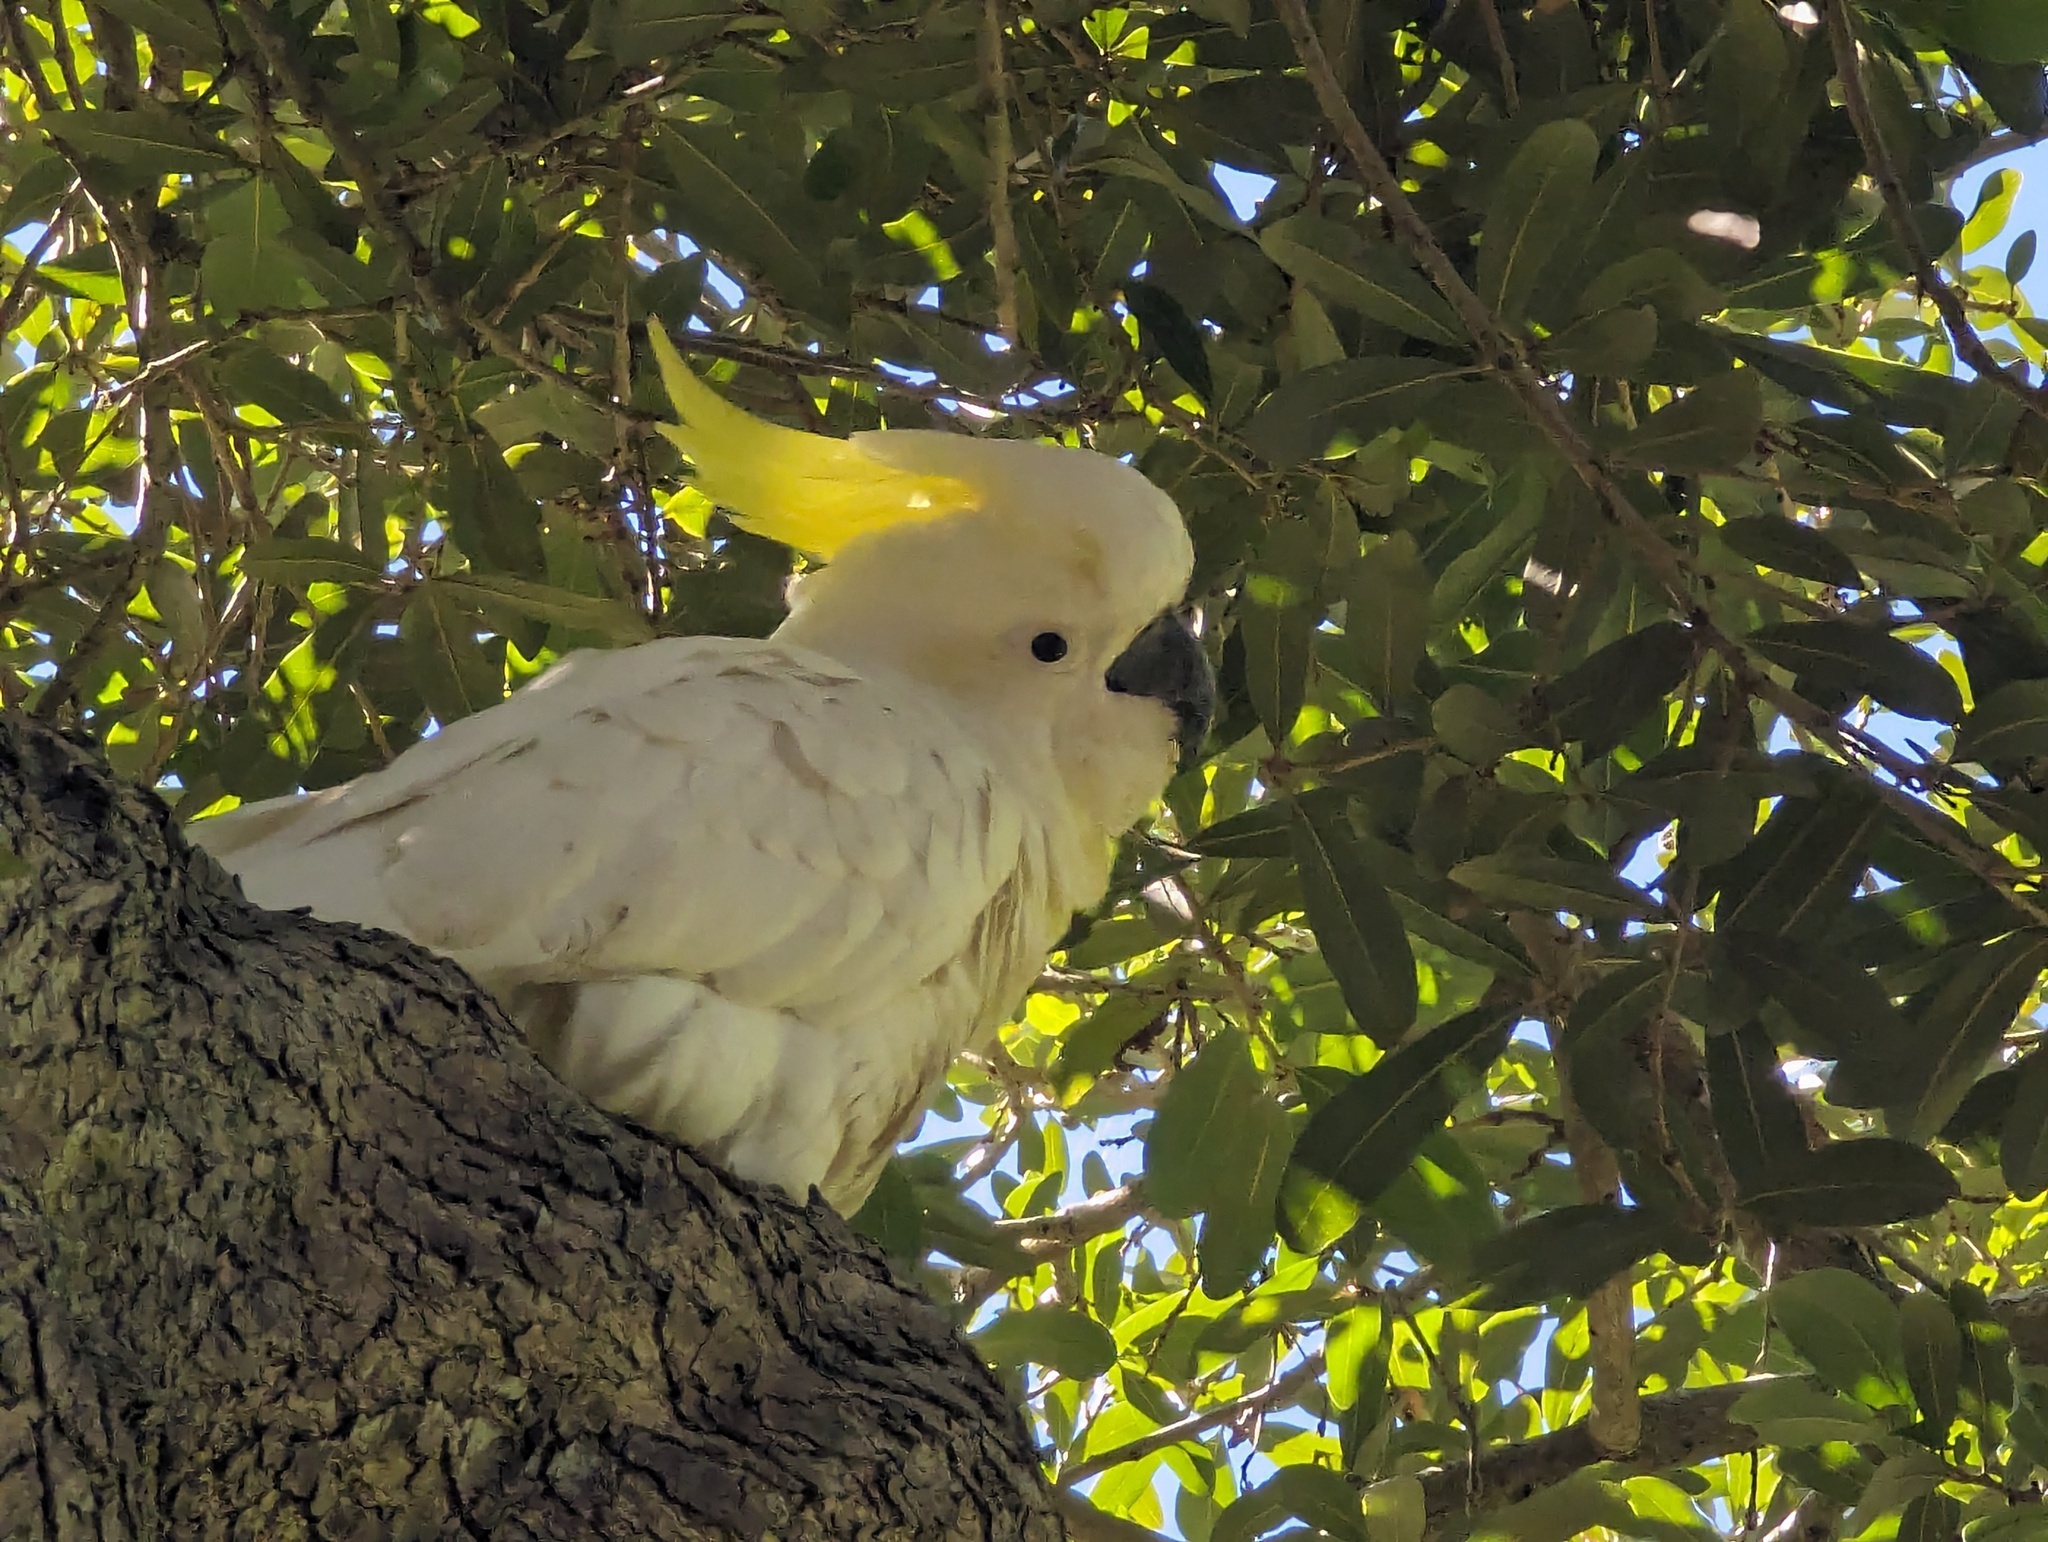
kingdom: Animalia
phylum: Chordata
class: Aves
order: Psittaciformes
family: Psittacidae
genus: Cacatua
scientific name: Cacatua galerita
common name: Sulphur-crested cockatoo
